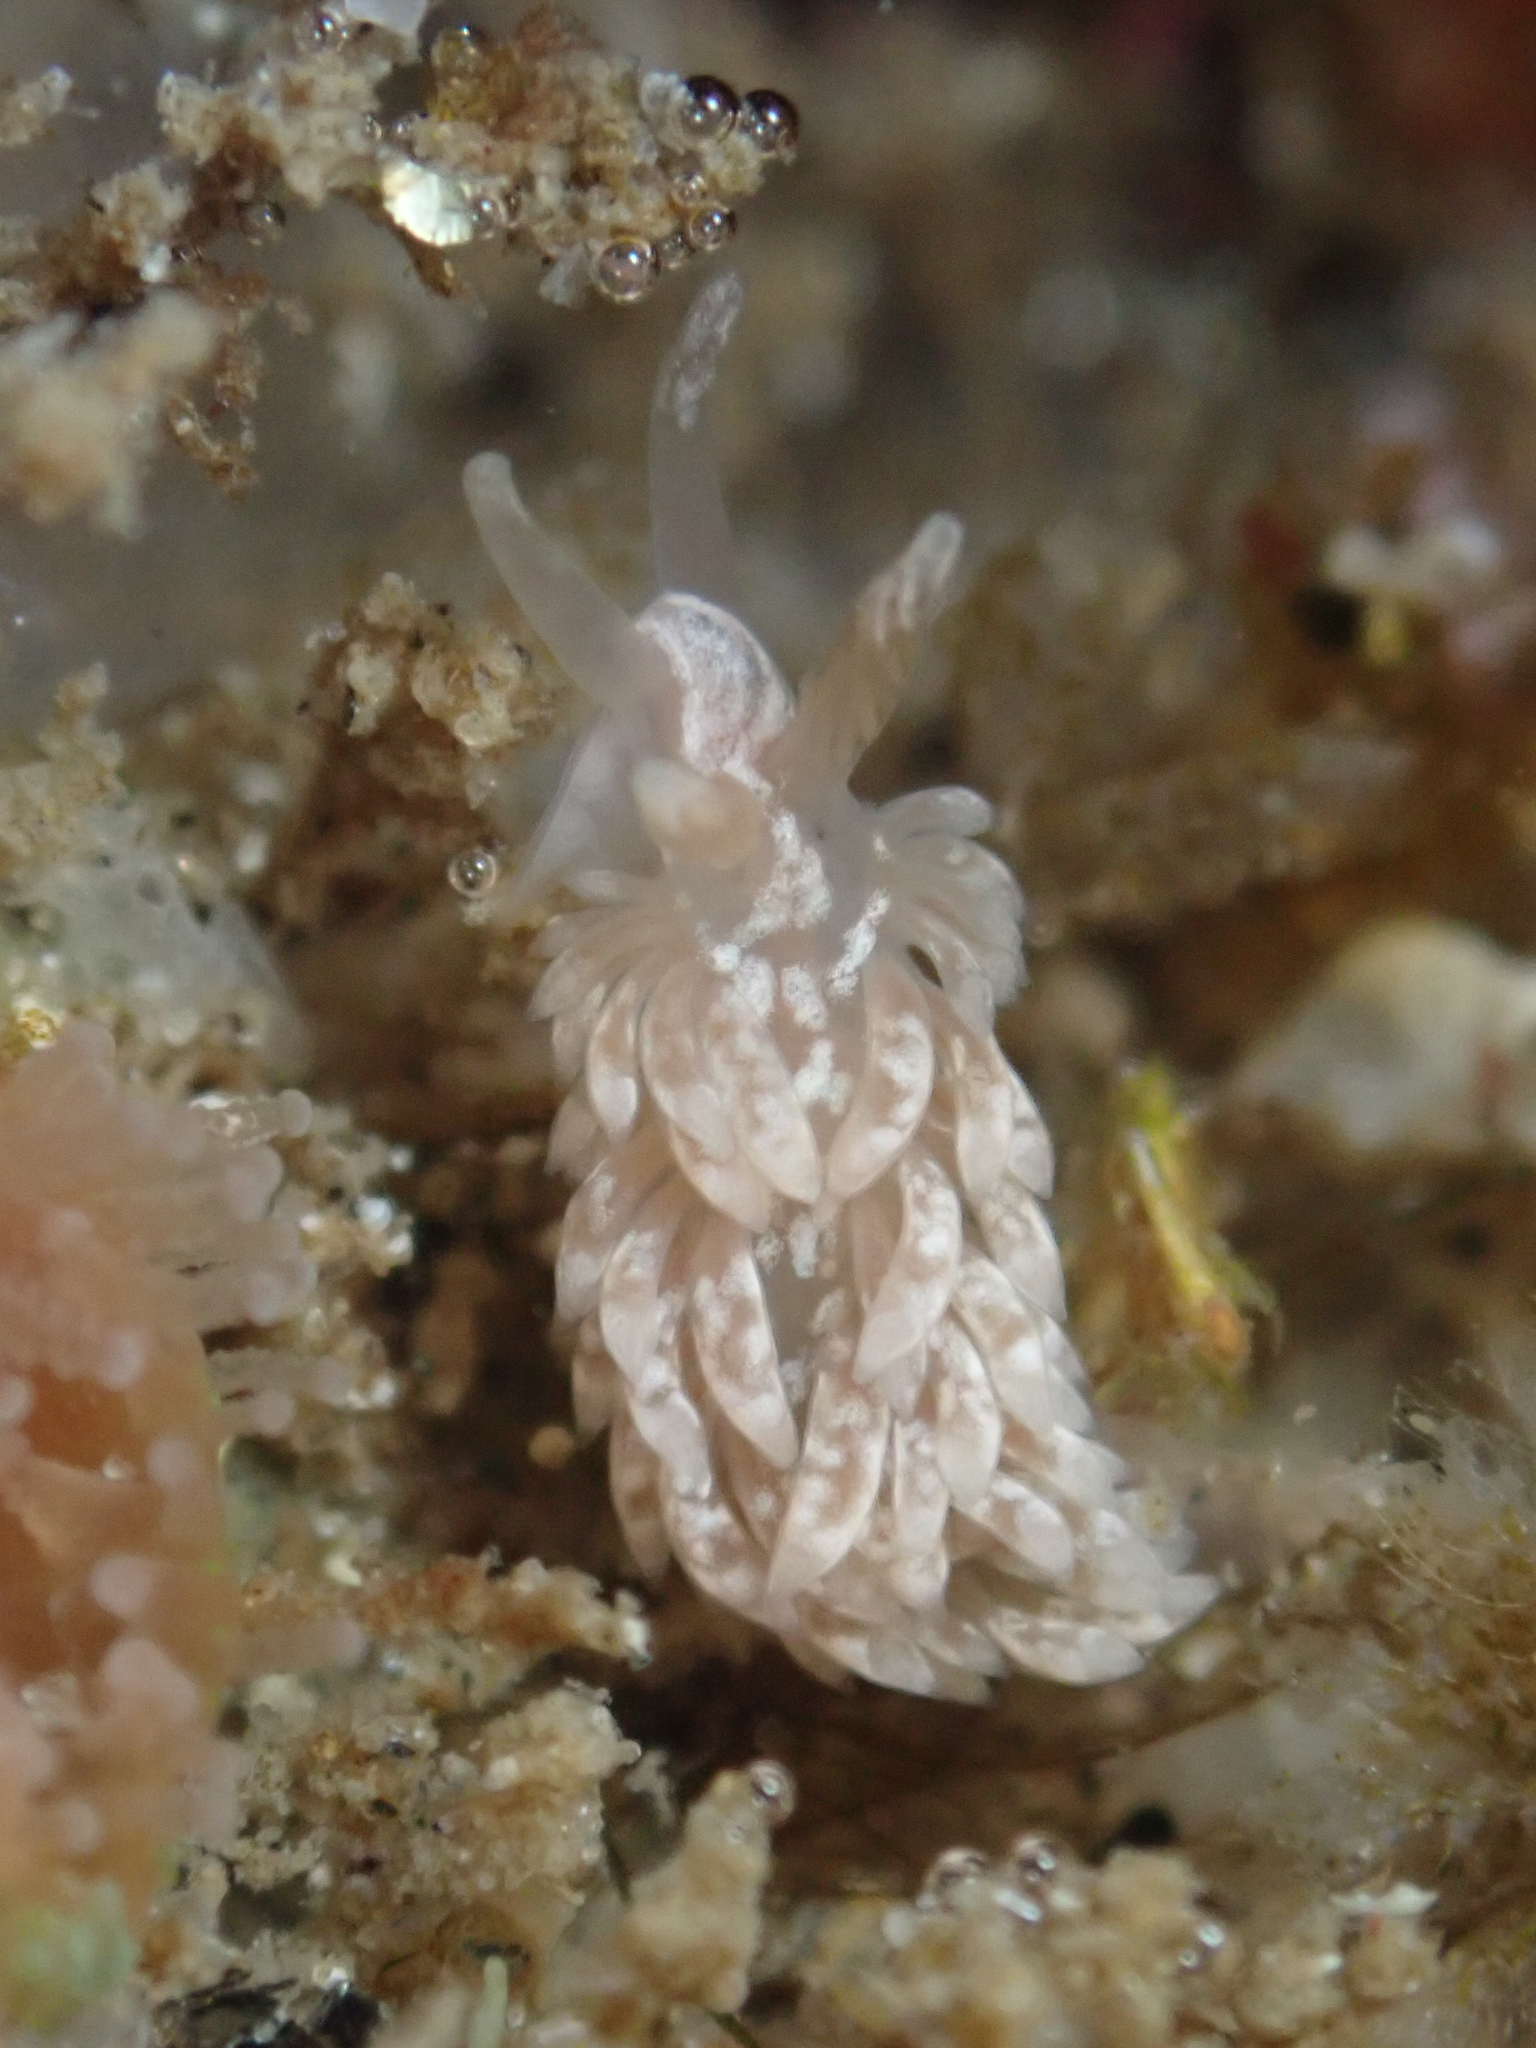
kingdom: Animalia
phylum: Mollusca
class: Gastropoda
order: Nudibranchia
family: Aeolidiidae
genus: Anteaeolidiella
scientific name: Anteaeolidiella chromosoma
